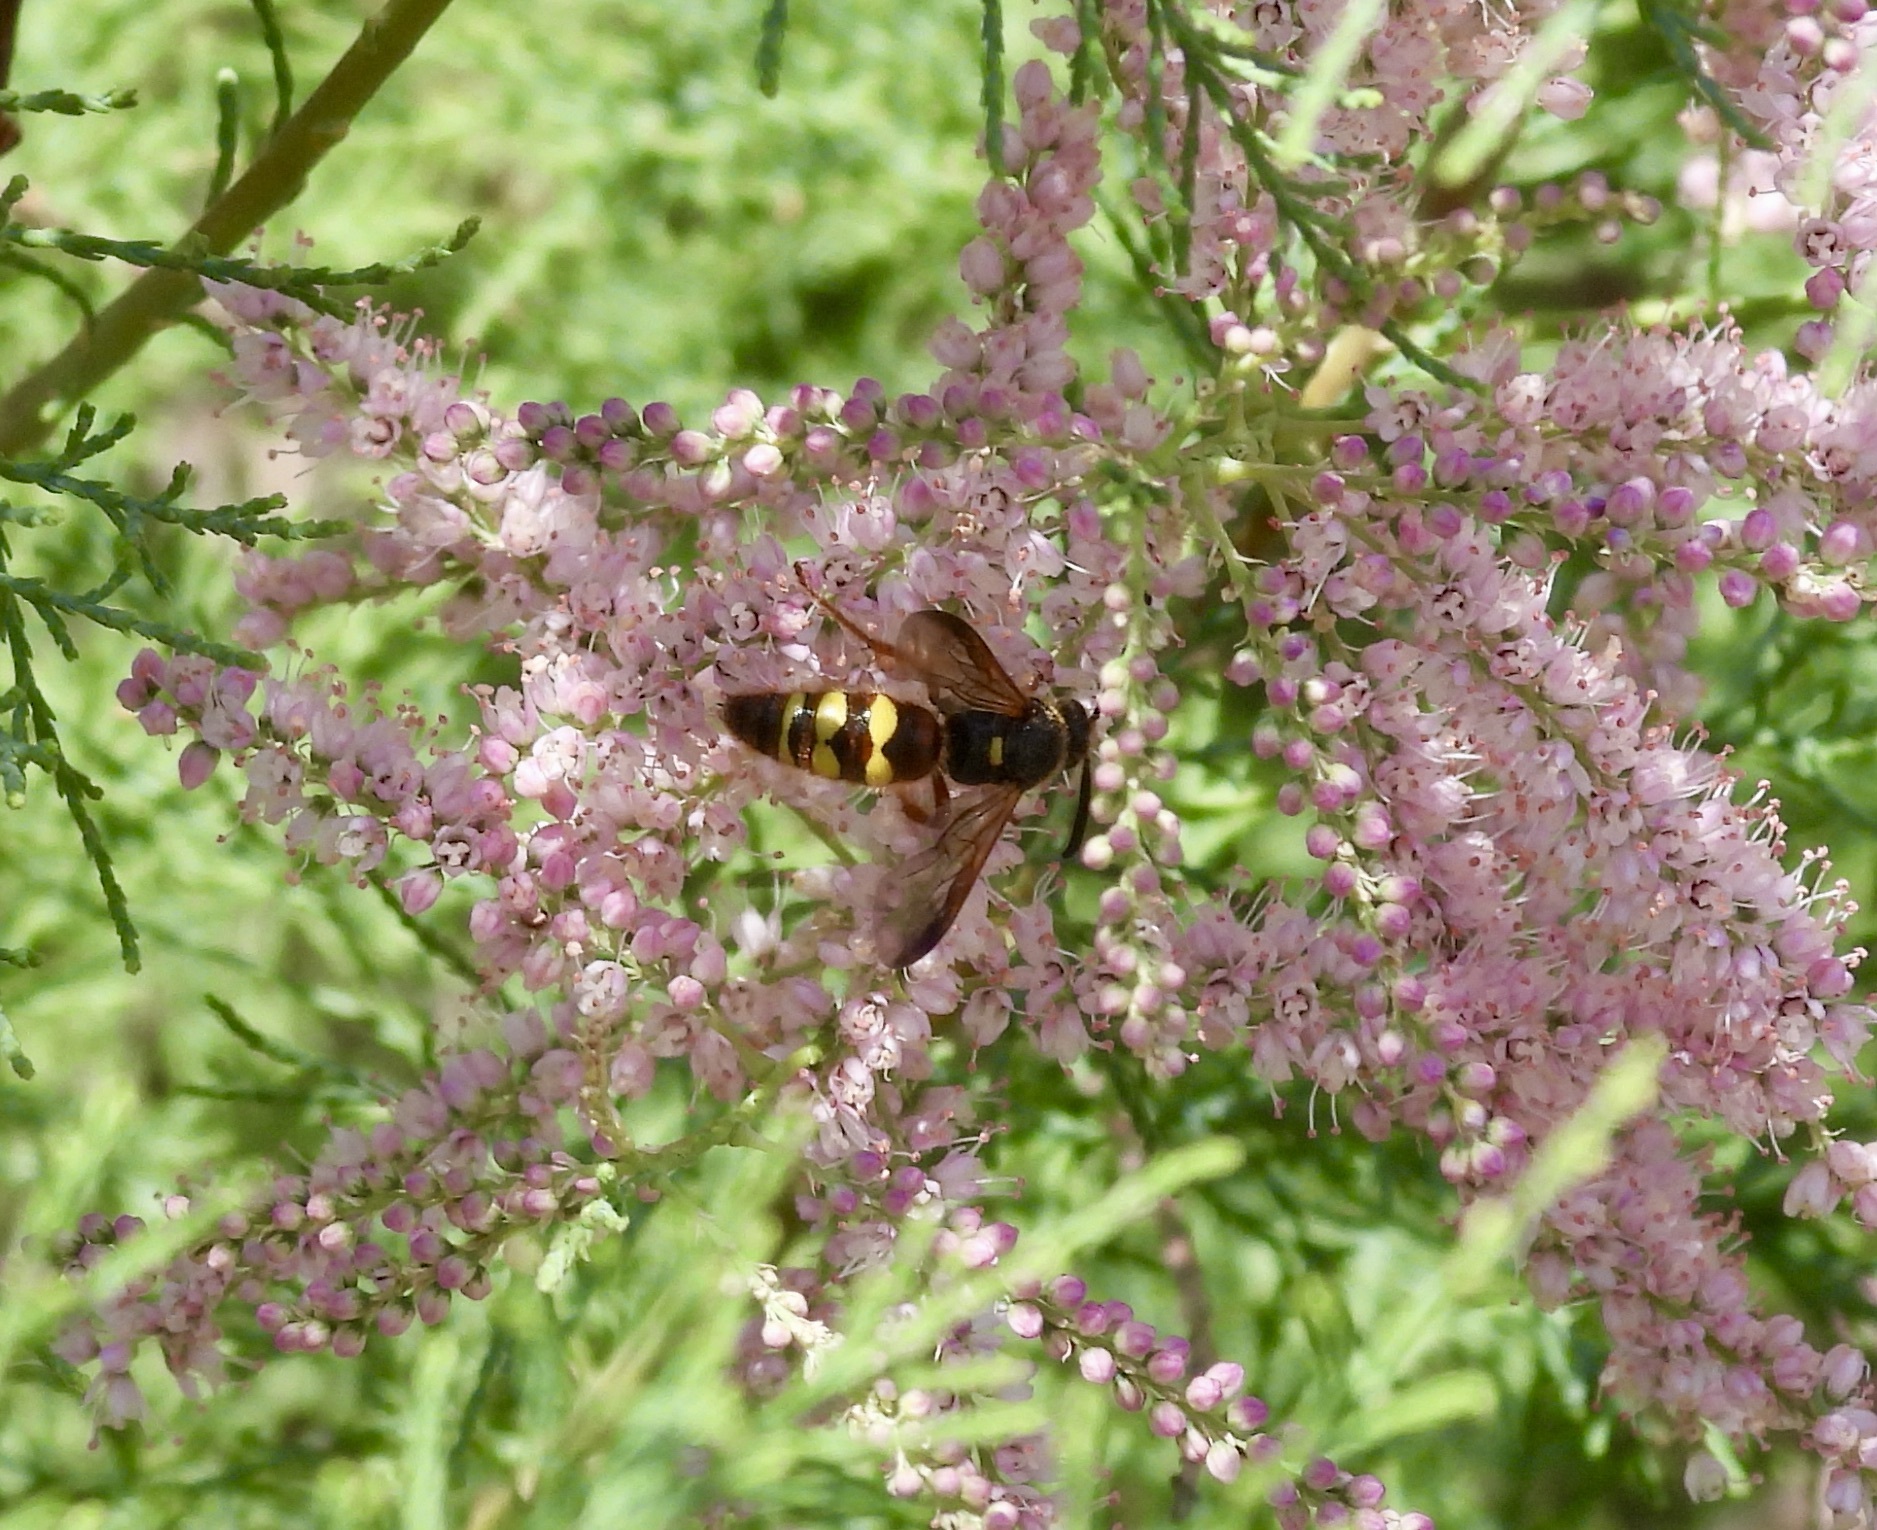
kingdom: Animalia
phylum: Arthropoda
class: Insecta
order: Hymenoptera
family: Scoliidae
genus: Scolia
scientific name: Scolia nobilitata
